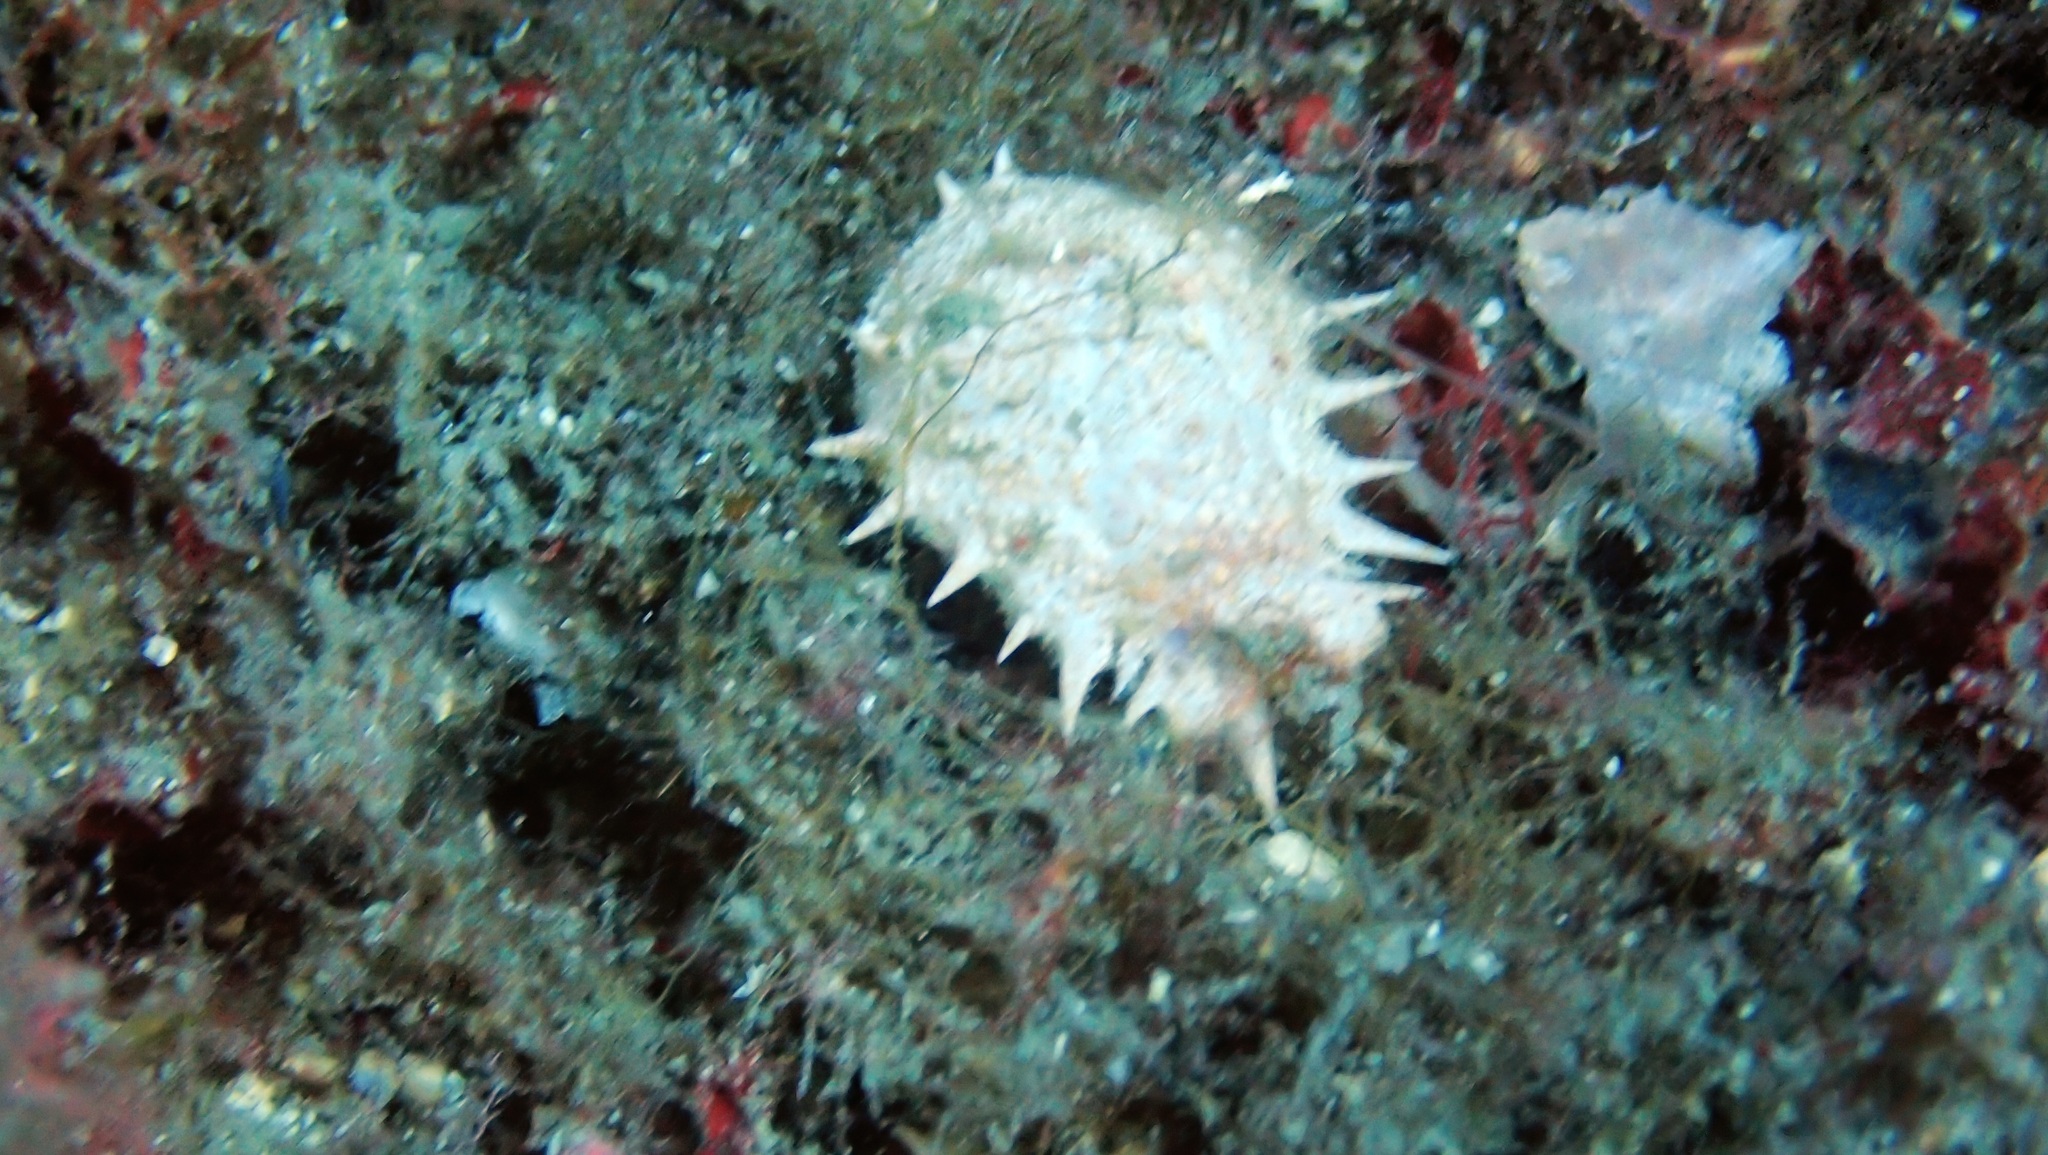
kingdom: Animalia
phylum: Arthropoda
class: Malacostraca
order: Decapoda
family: Majidae
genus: Maja
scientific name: Maja crispata
